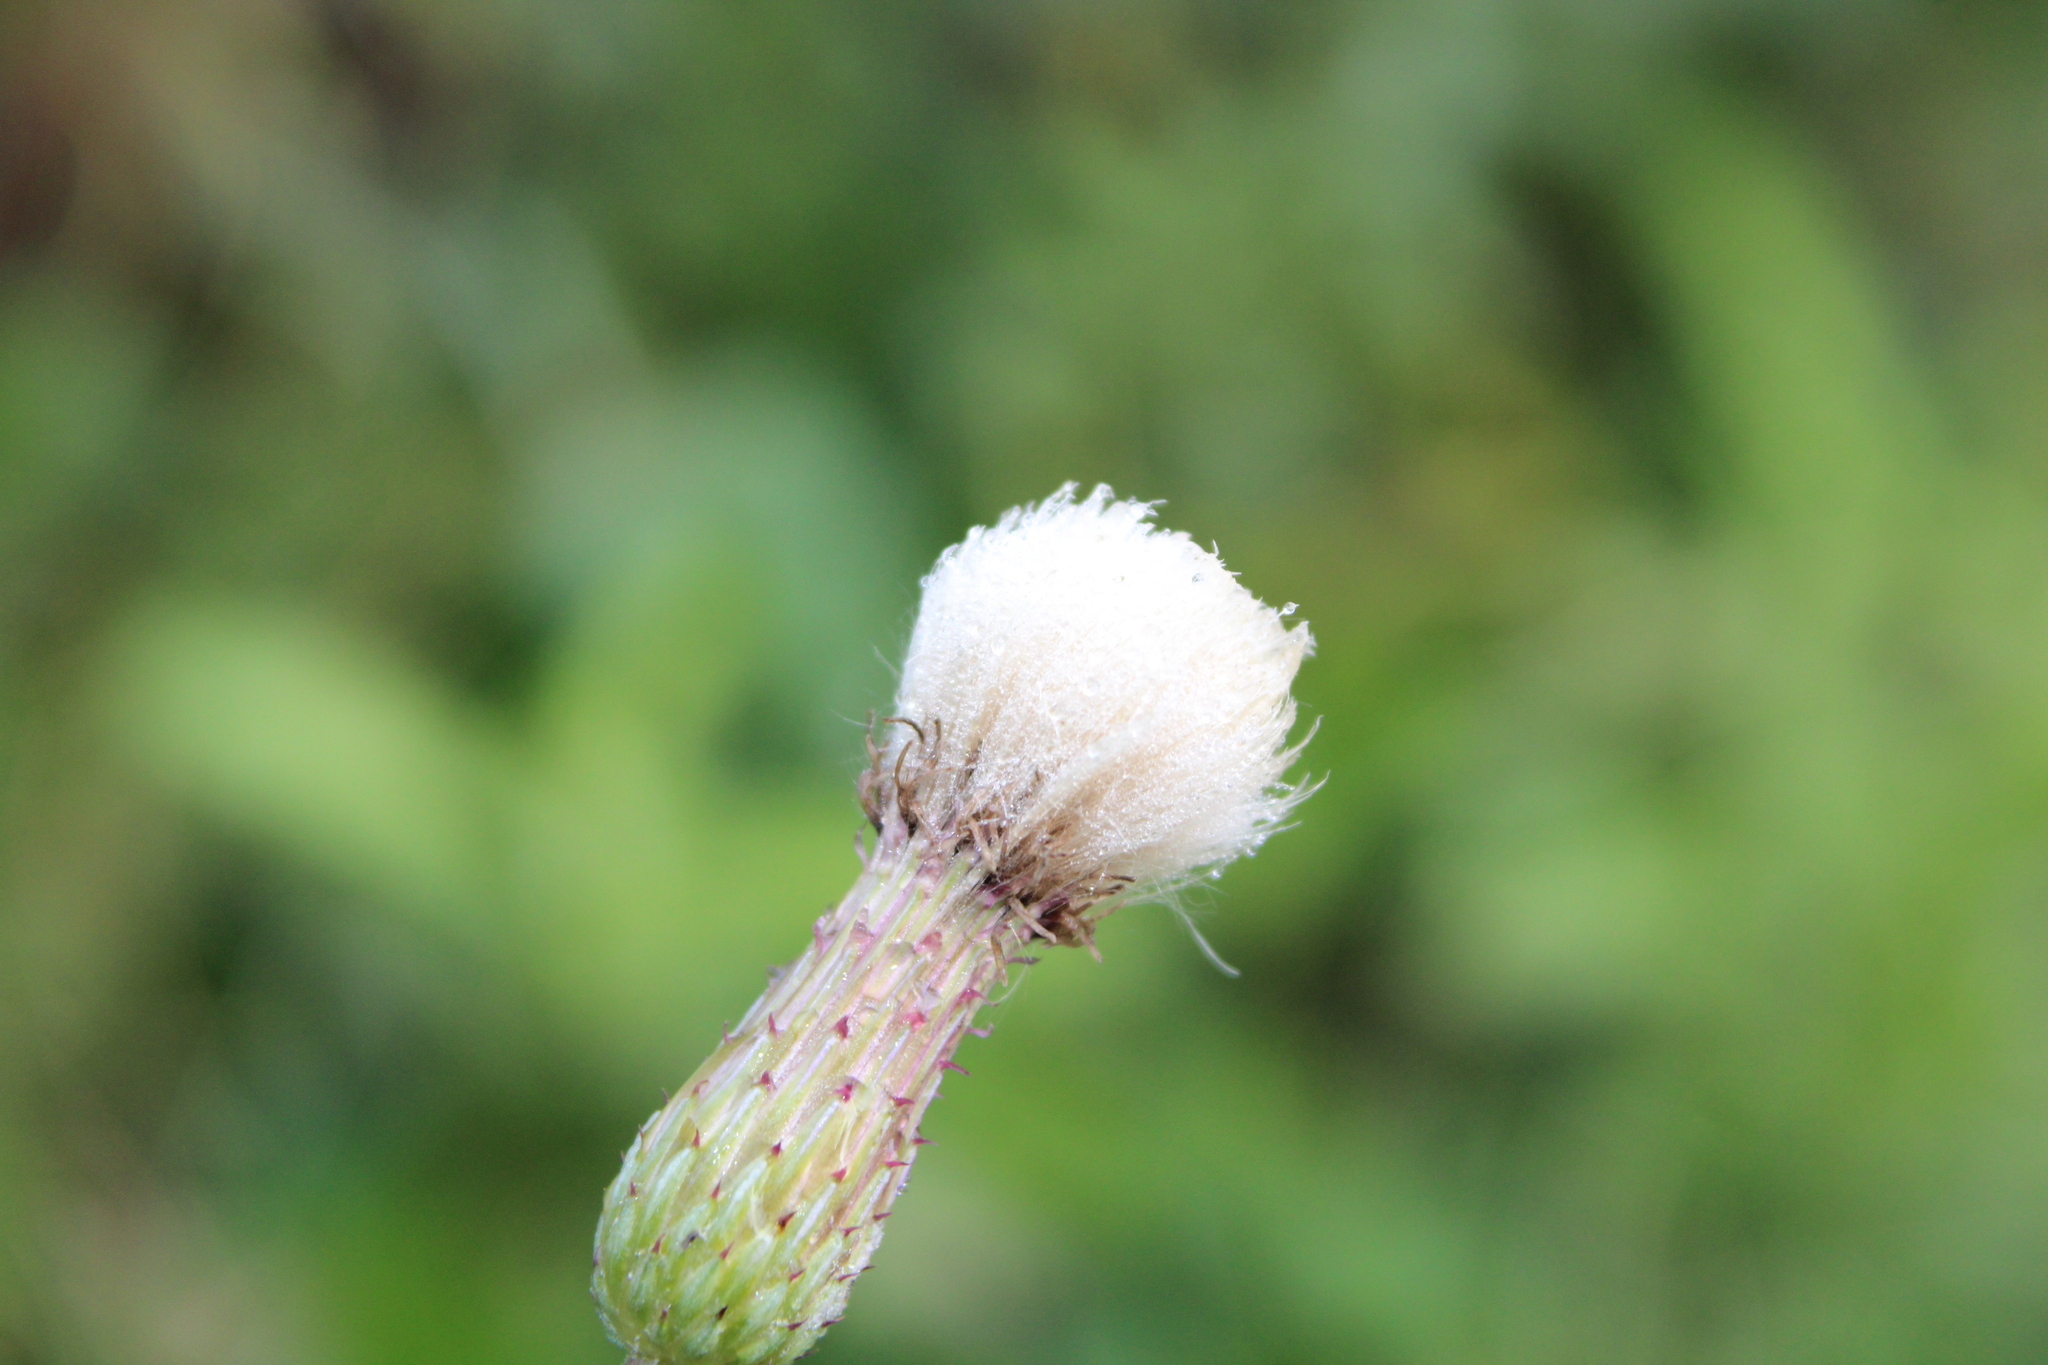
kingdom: Plantae
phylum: Tracheophyta
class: Magnoliopsida
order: Asterales
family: Asteraceae
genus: Cirsium
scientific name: Cirsium arvense
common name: Creeping thistle
